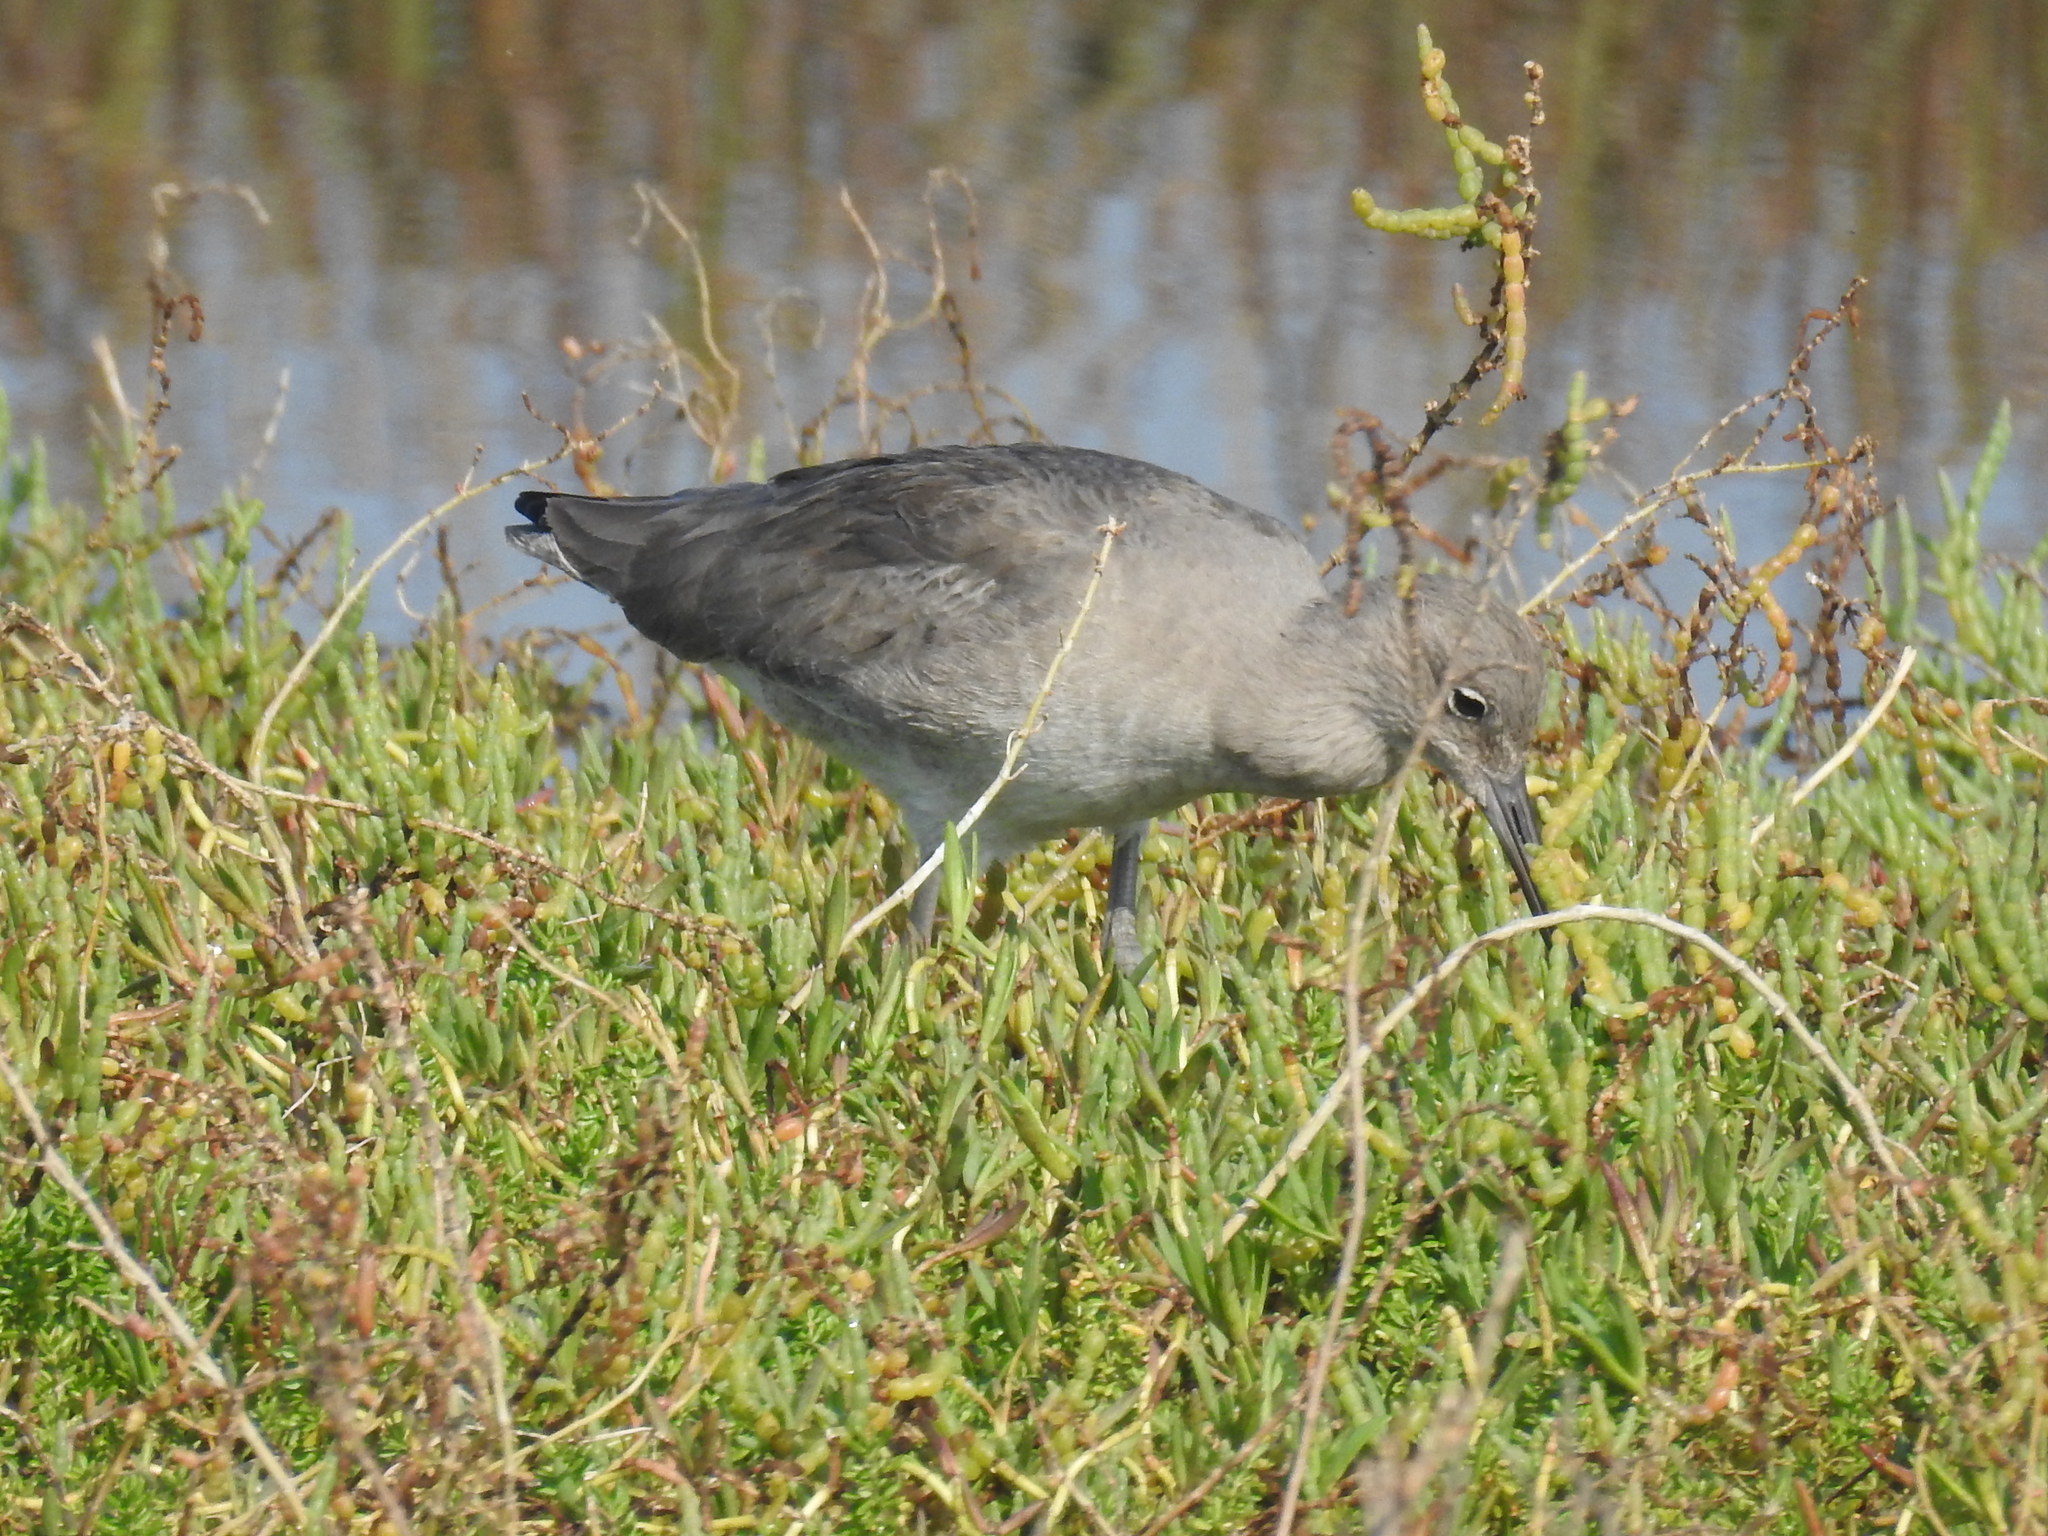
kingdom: Animalia
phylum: Chordata
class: Aves
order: Charadriiformes
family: Scolopacidae
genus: Tringa
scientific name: Tringa semipalmata
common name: Willet
